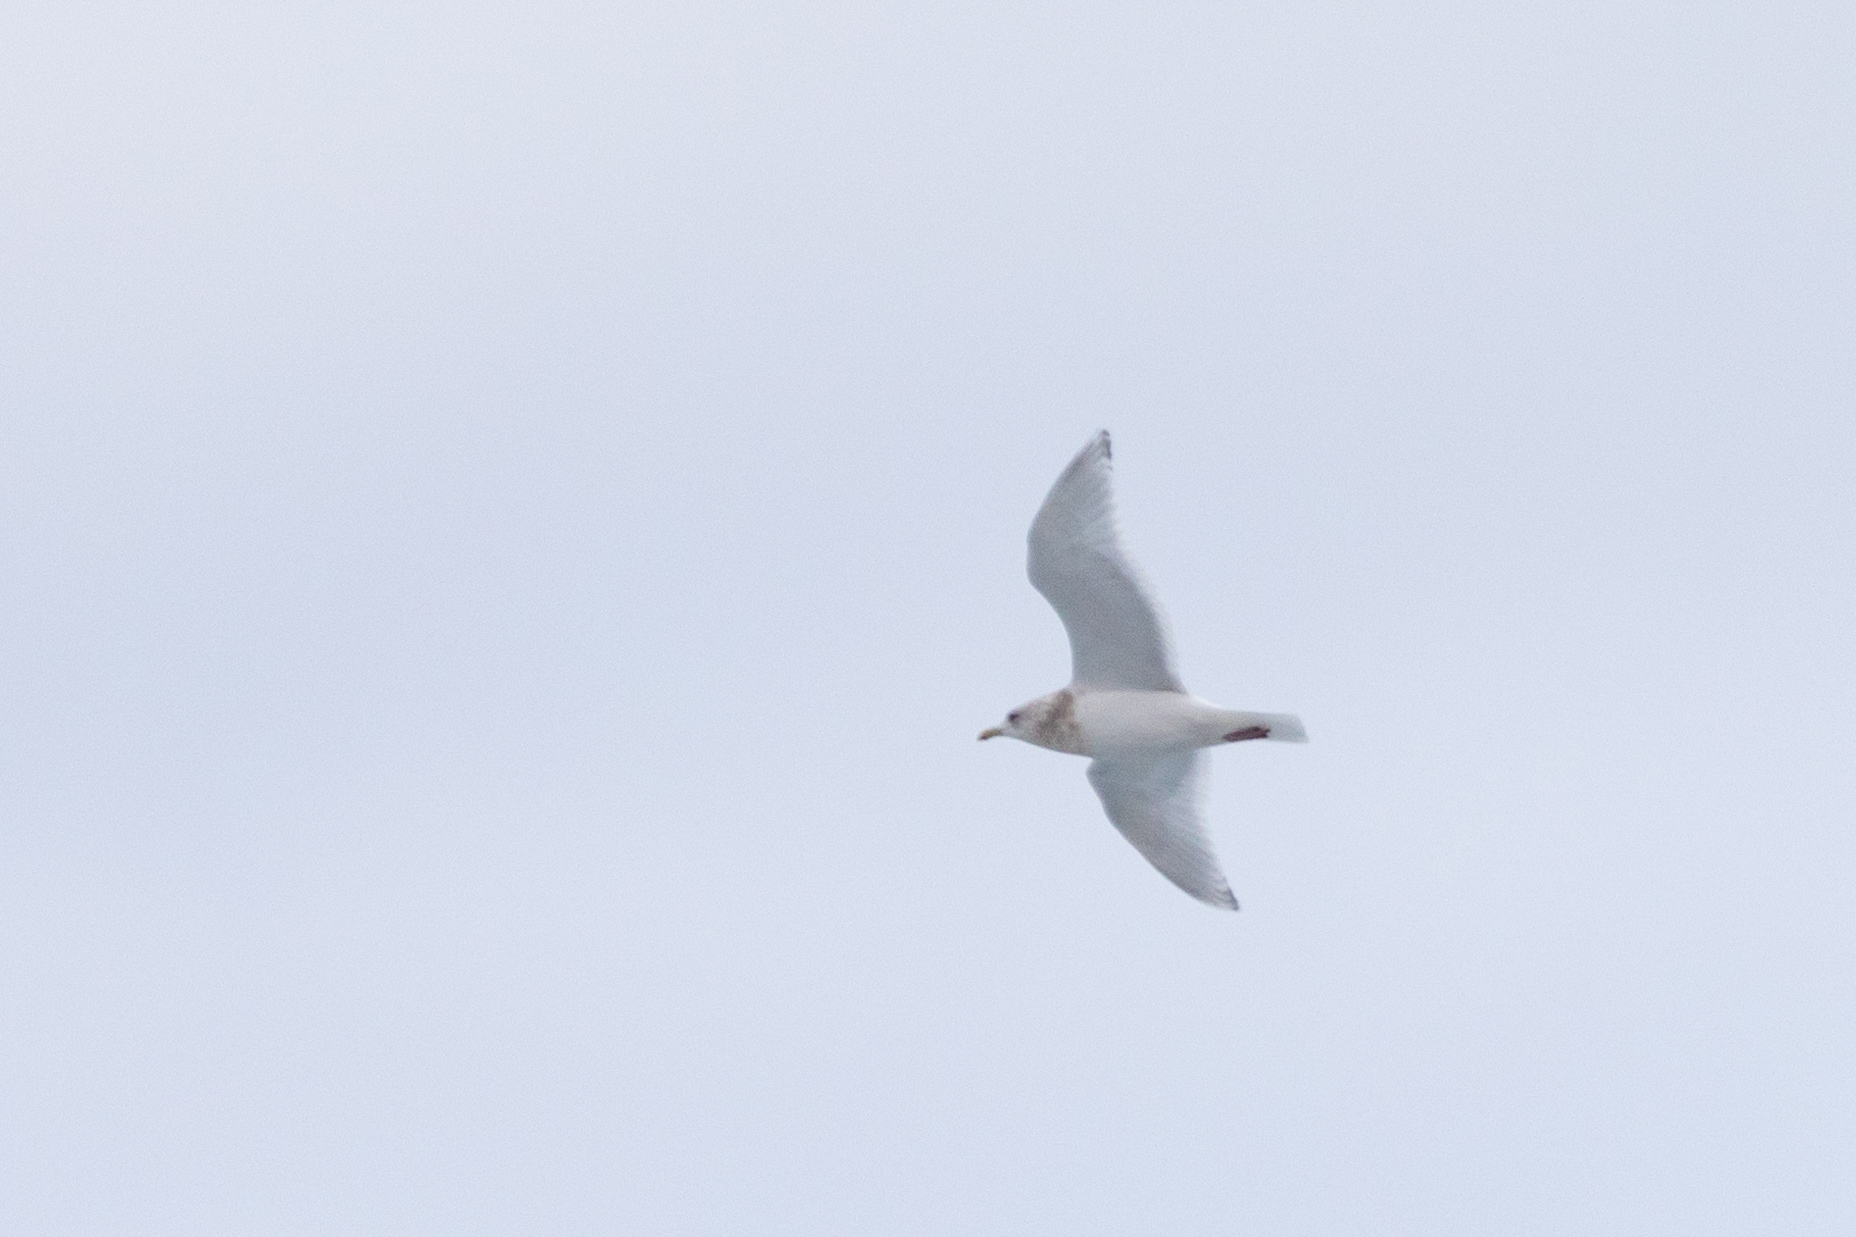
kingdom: Animalia
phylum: Chordata
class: Aves
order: Charadriiformes
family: Laridae
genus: Larus
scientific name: Larus glaucoides
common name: Iceland gull
